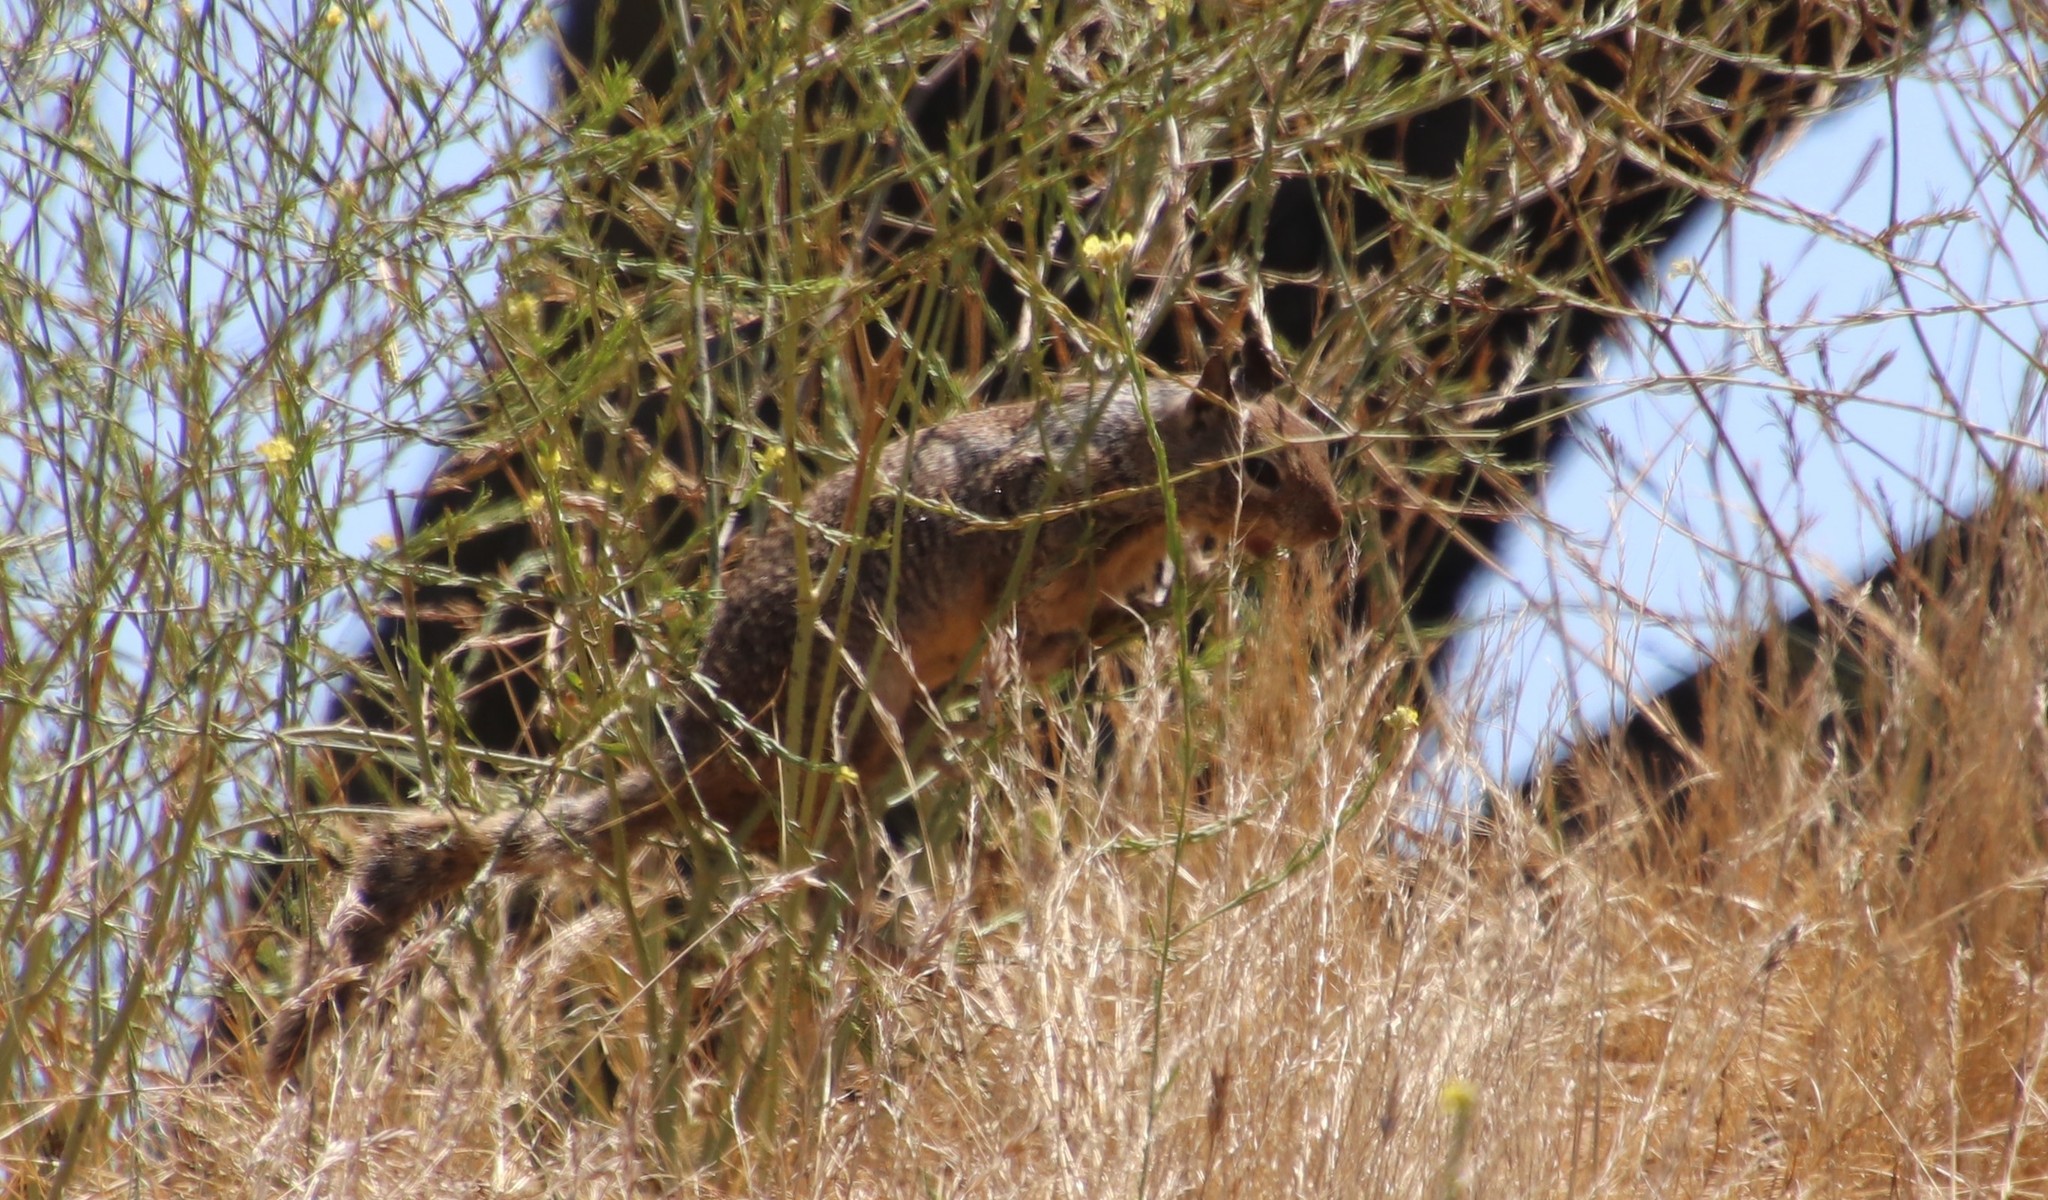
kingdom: Animalia
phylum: Chordata
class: Mammalia
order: Rodentia
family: Sciuridae
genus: Otospermophilus
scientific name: Otospermophilus beecheyi
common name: California ground squirrel
